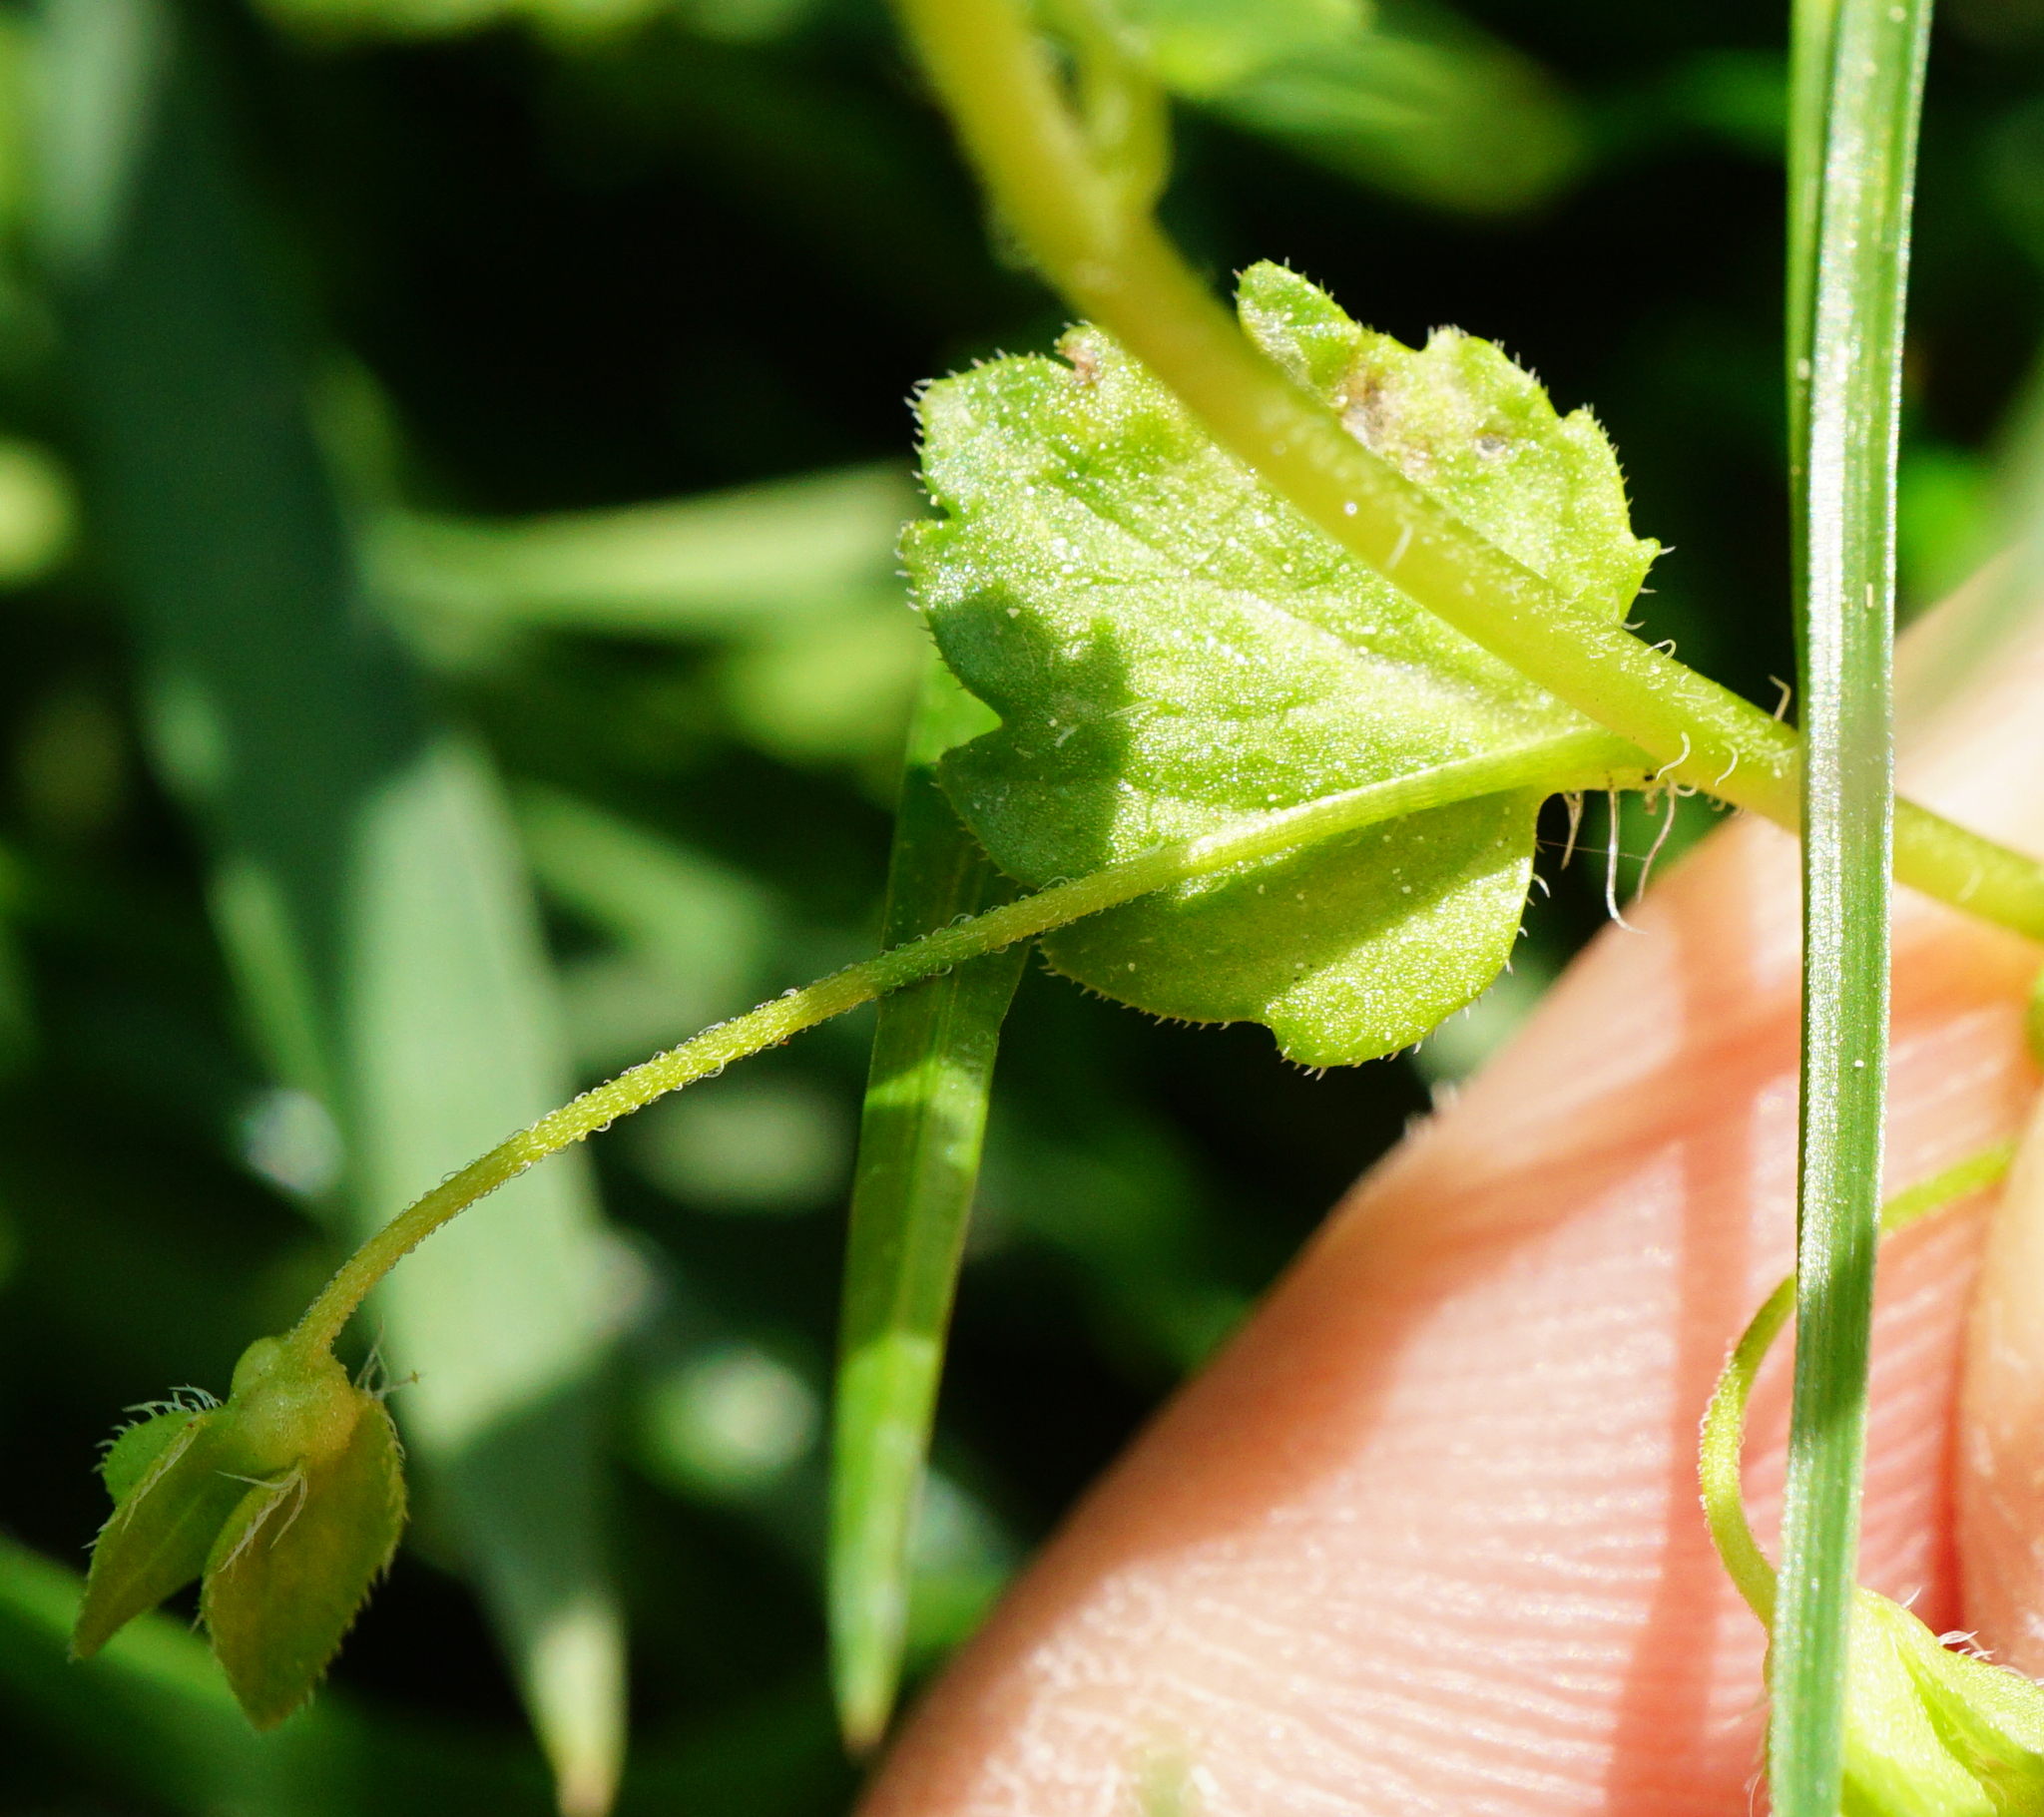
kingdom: Plantae
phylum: Tracheophyta
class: Magnoliopsida
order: Lamiales
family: Plantaginaceae
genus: Veronica
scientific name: Veronica persica
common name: Common field-speedwell
